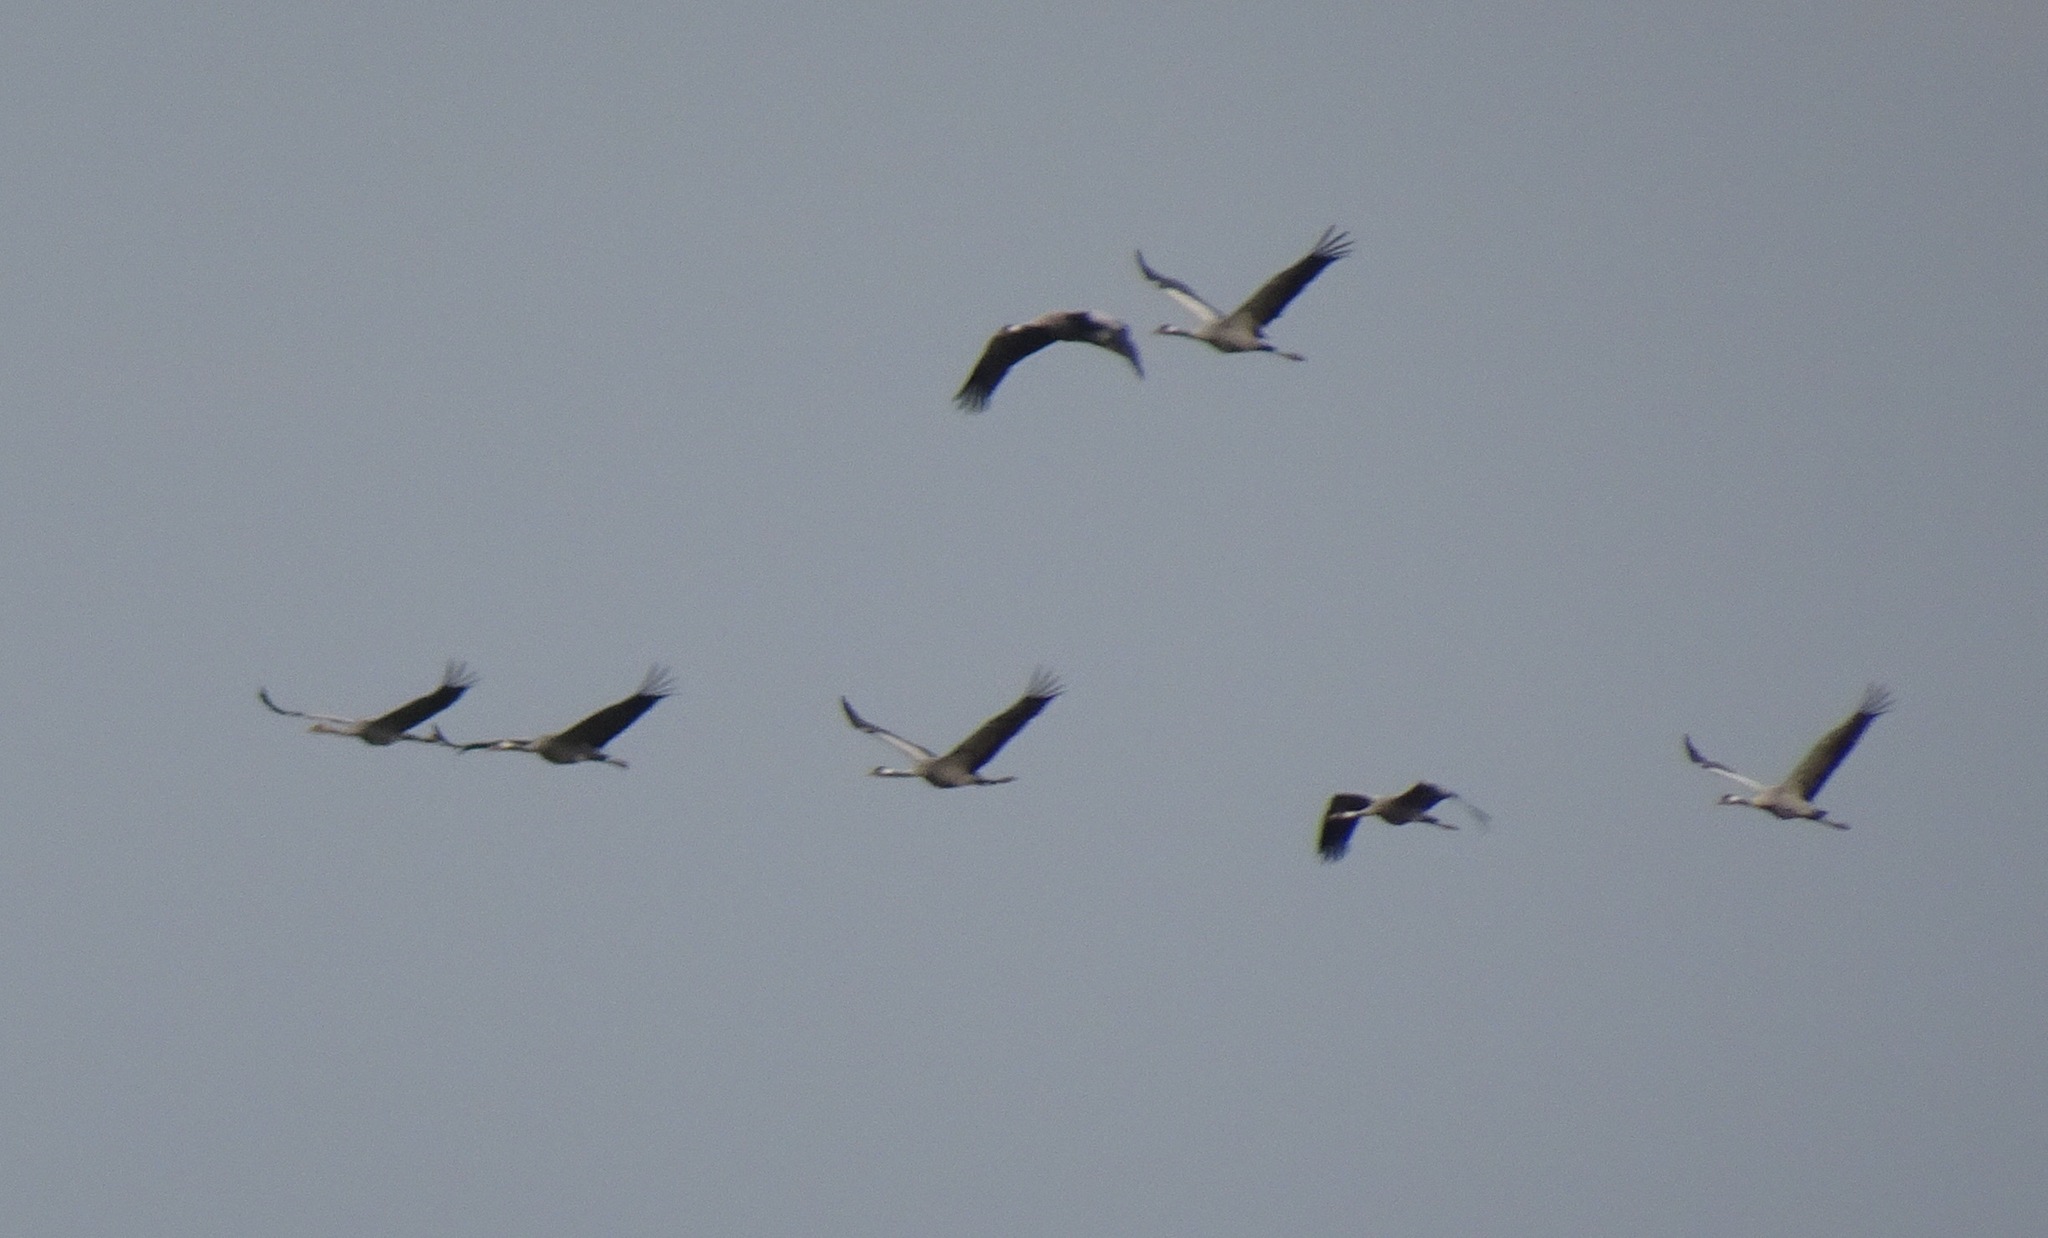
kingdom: Animalia
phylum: Chordata
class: Aves
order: Gruiformes
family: Gruidae
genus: Grus
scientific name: Grus grus
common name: Common crane
